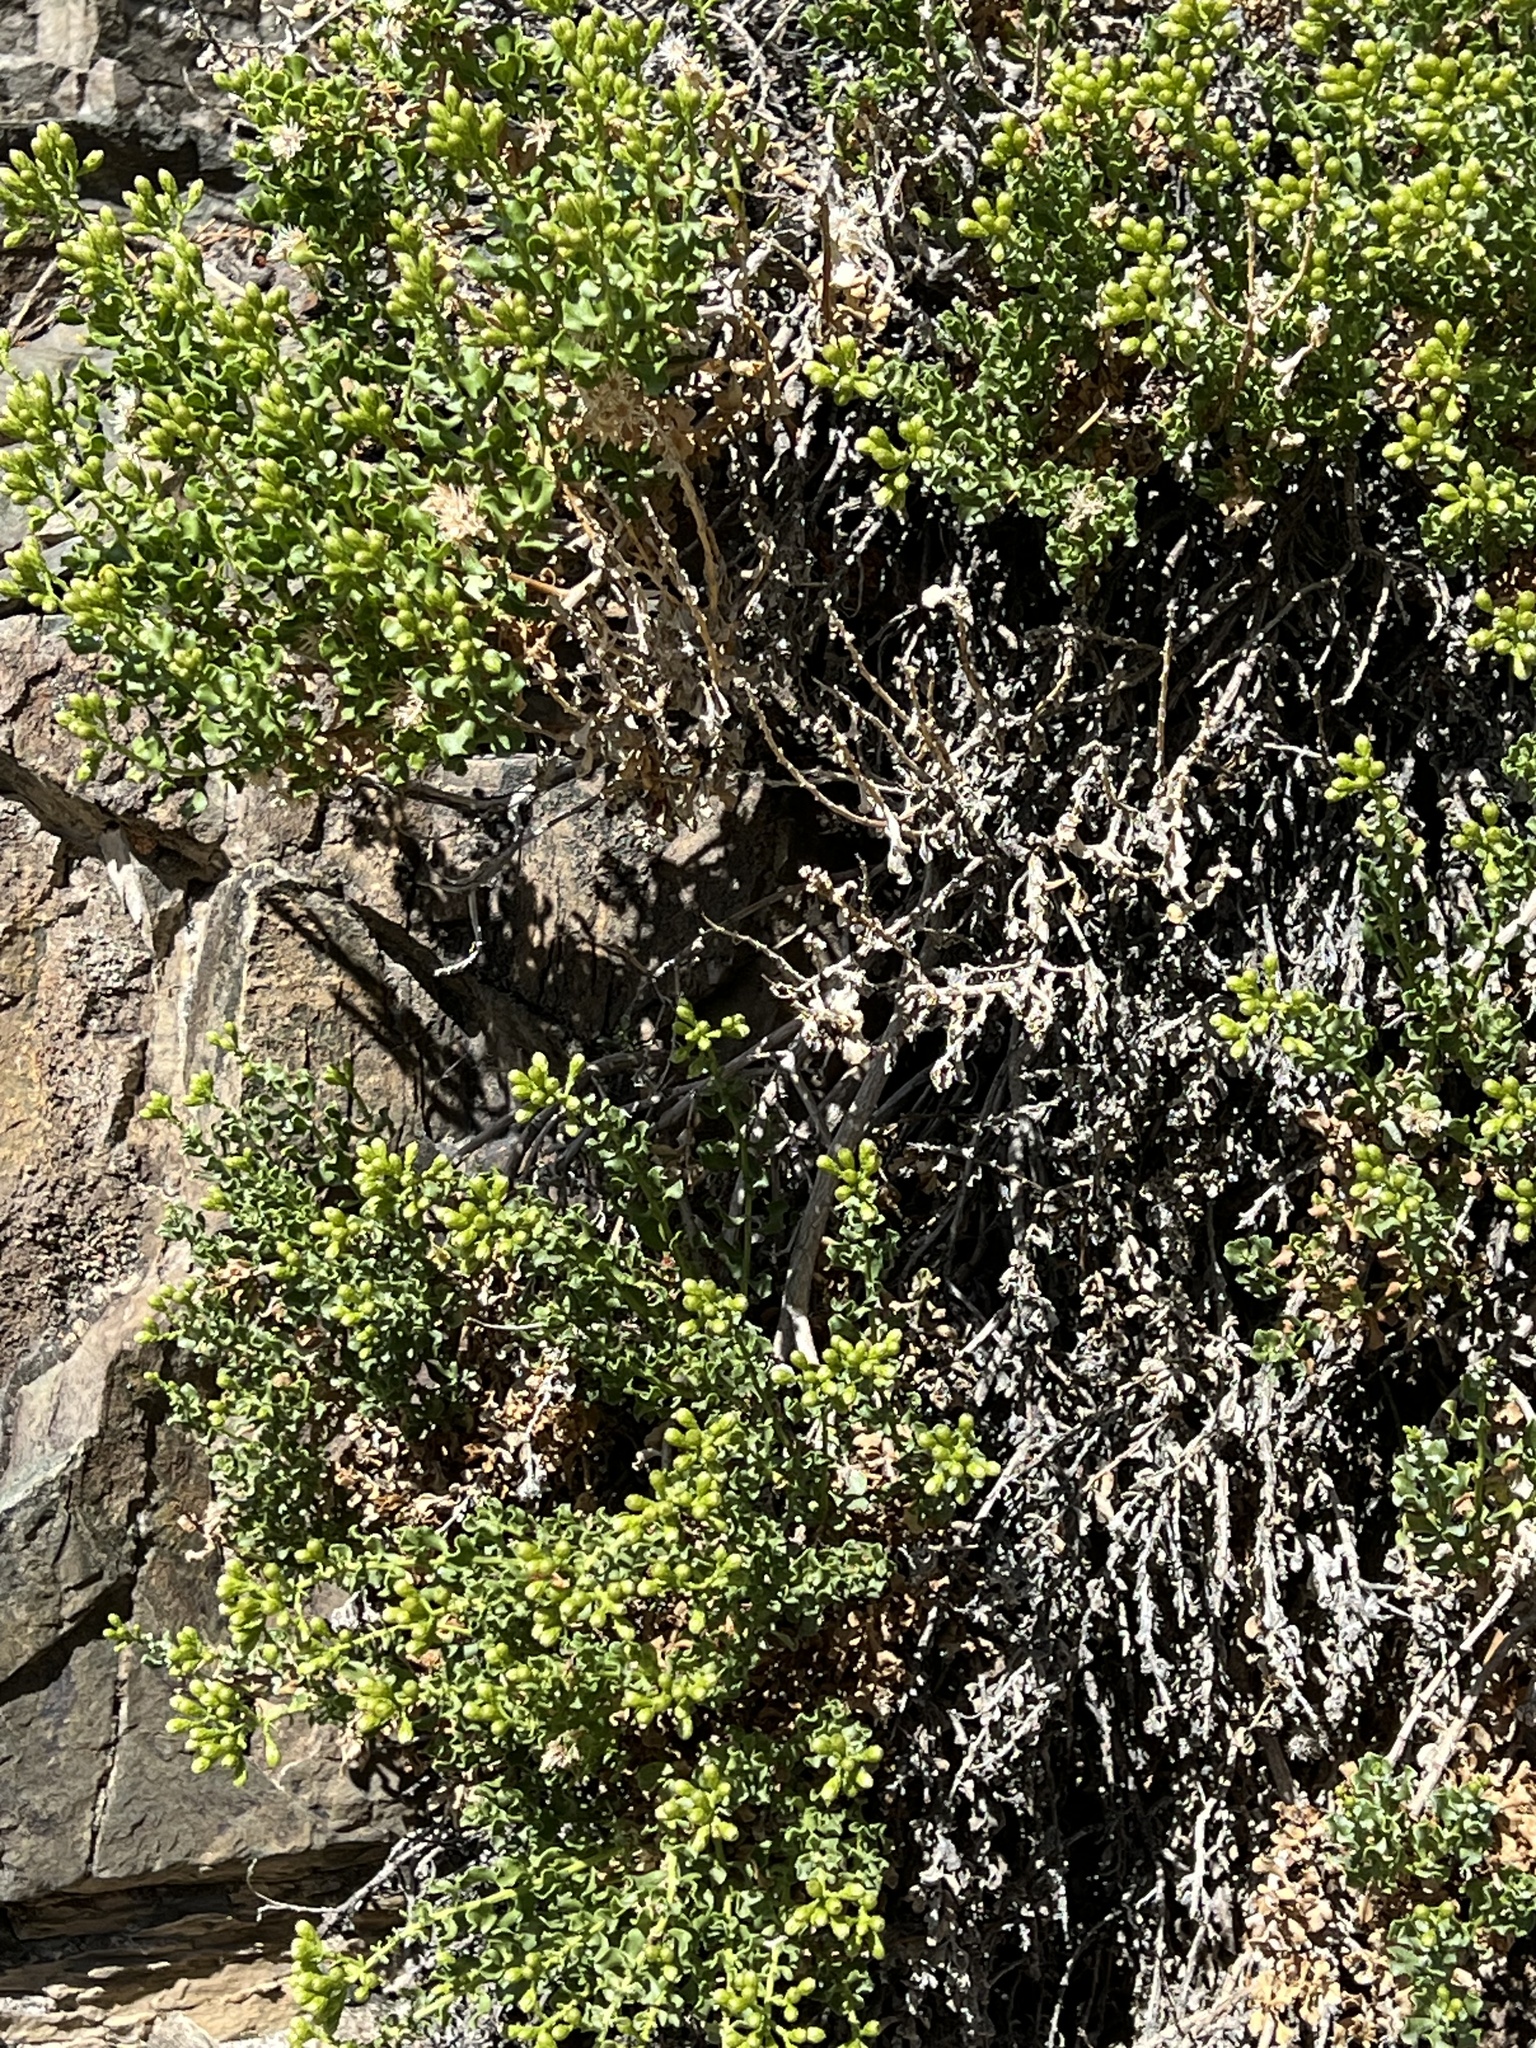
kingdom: Plantae
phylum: Tracheophyta
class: Magnoliopsida
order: Asterales
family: Asteraceae
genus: Ericameria
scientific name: Ericameria cuneata
